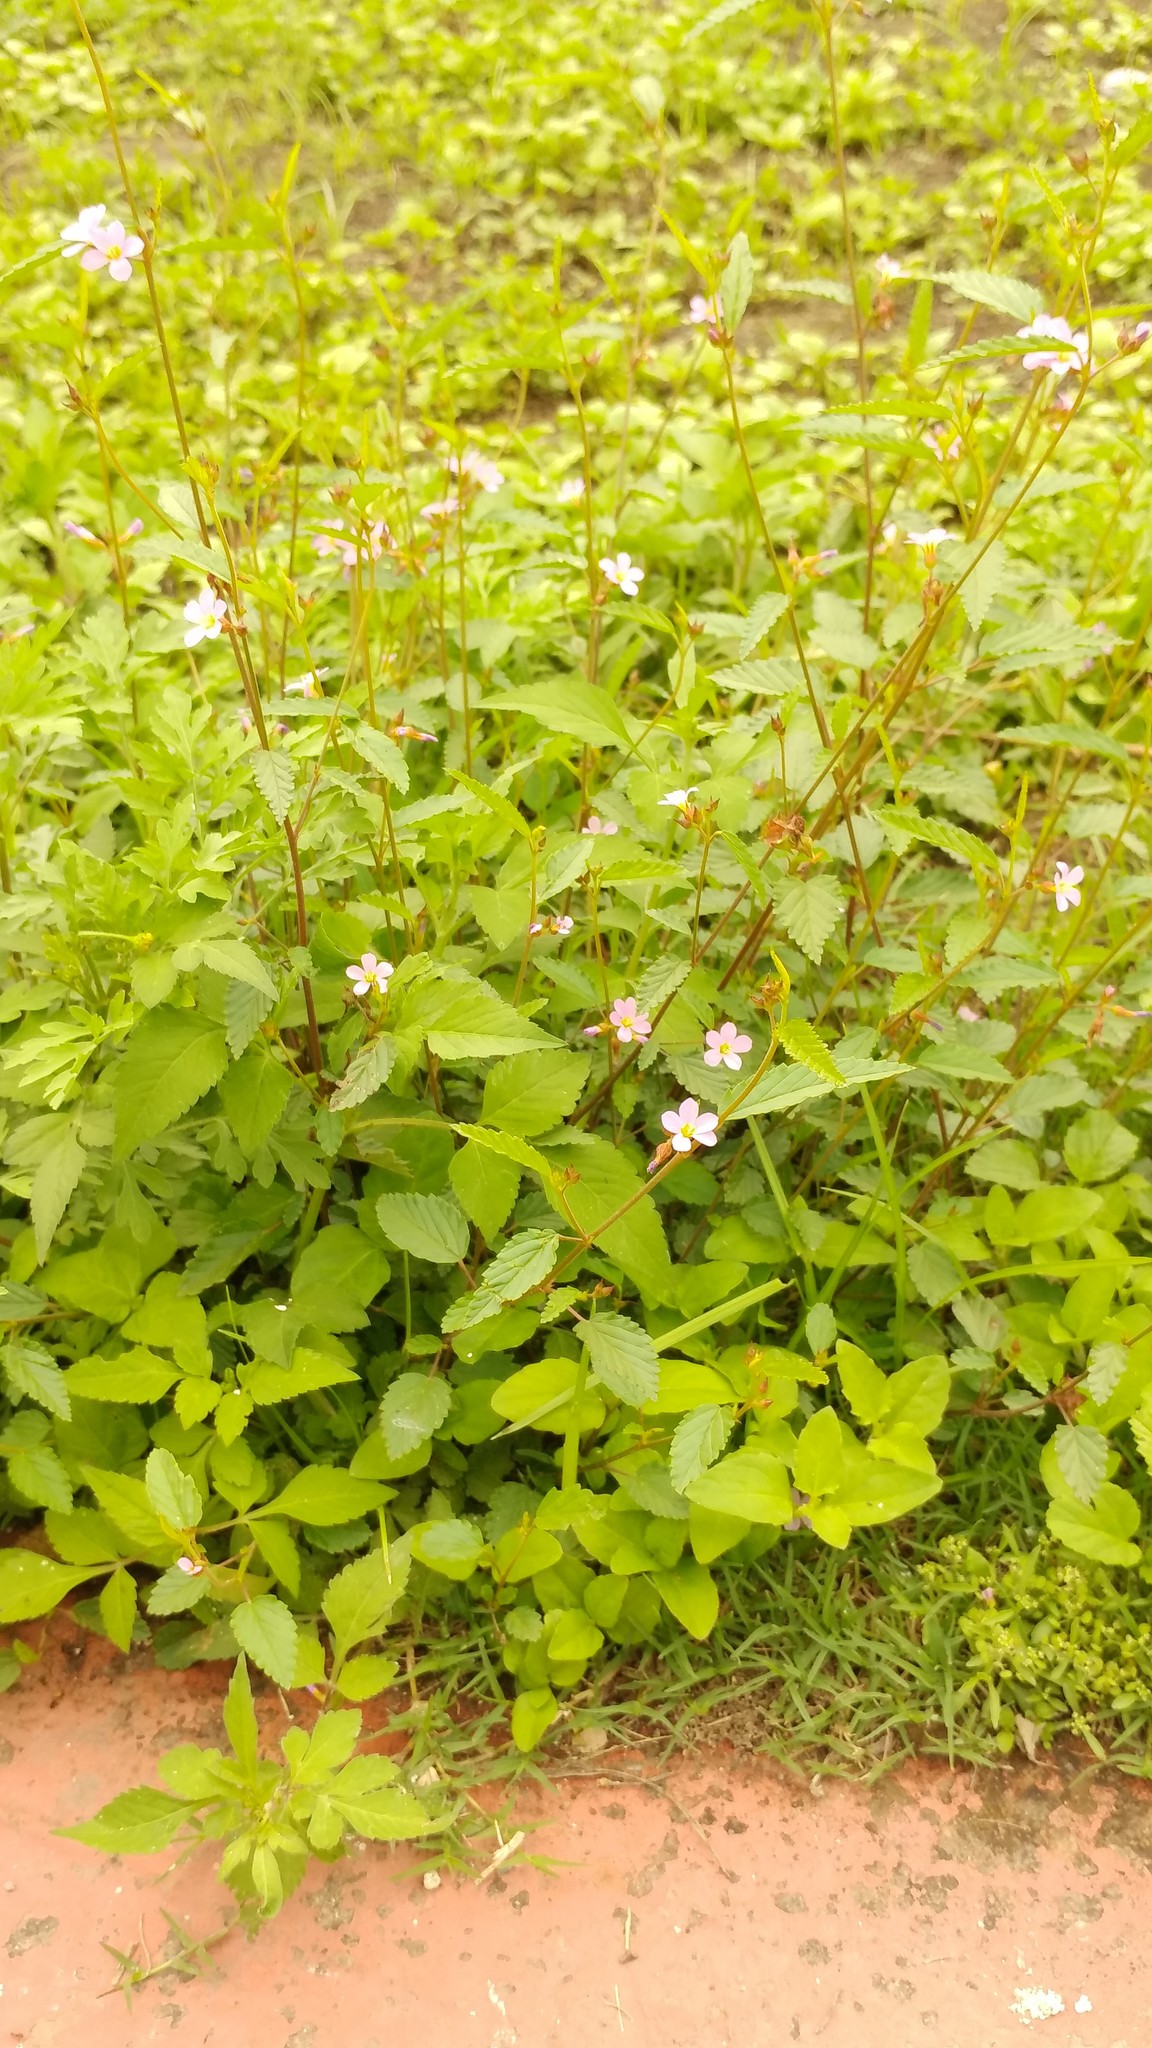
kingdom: Plantae
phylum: Tracheophyta
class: Magnoliopsida
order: Malvales
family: Malvaceae
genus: Melochia
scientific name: Melochia pyramidata
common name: Pyramidflower
